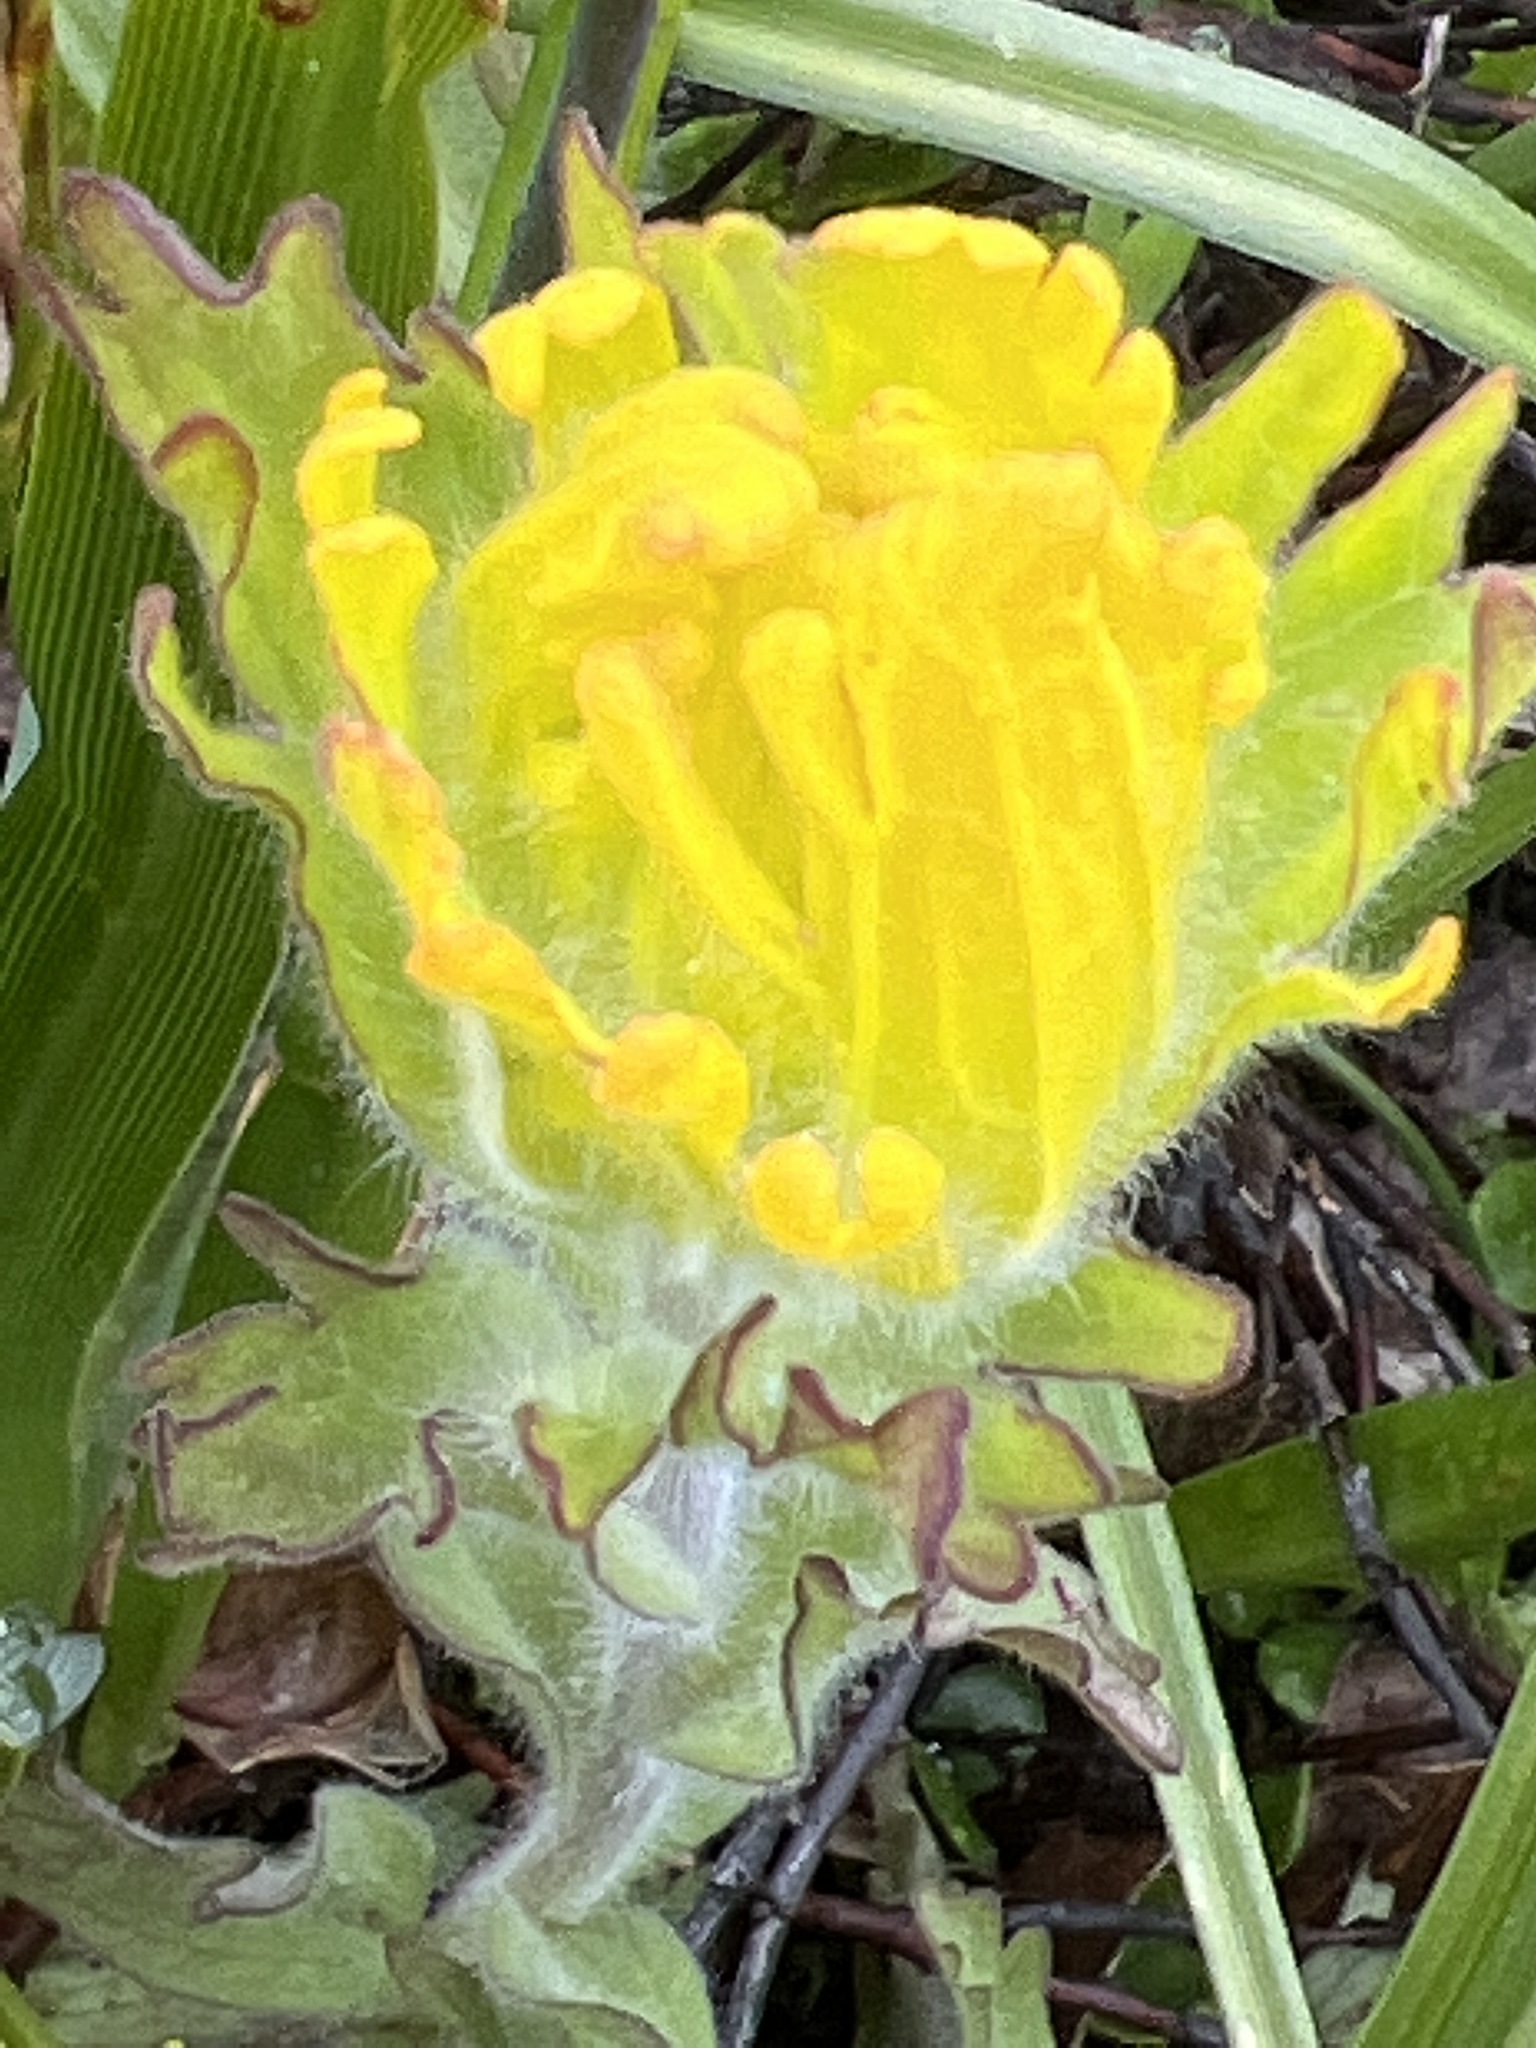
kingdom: Plantae
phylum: Tracheophyta
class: Magnoliopsida
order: Lamiales
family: Orobanchaceae
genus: Castilleja
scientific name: Castilleja levisecta
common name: Golden paintbrush
